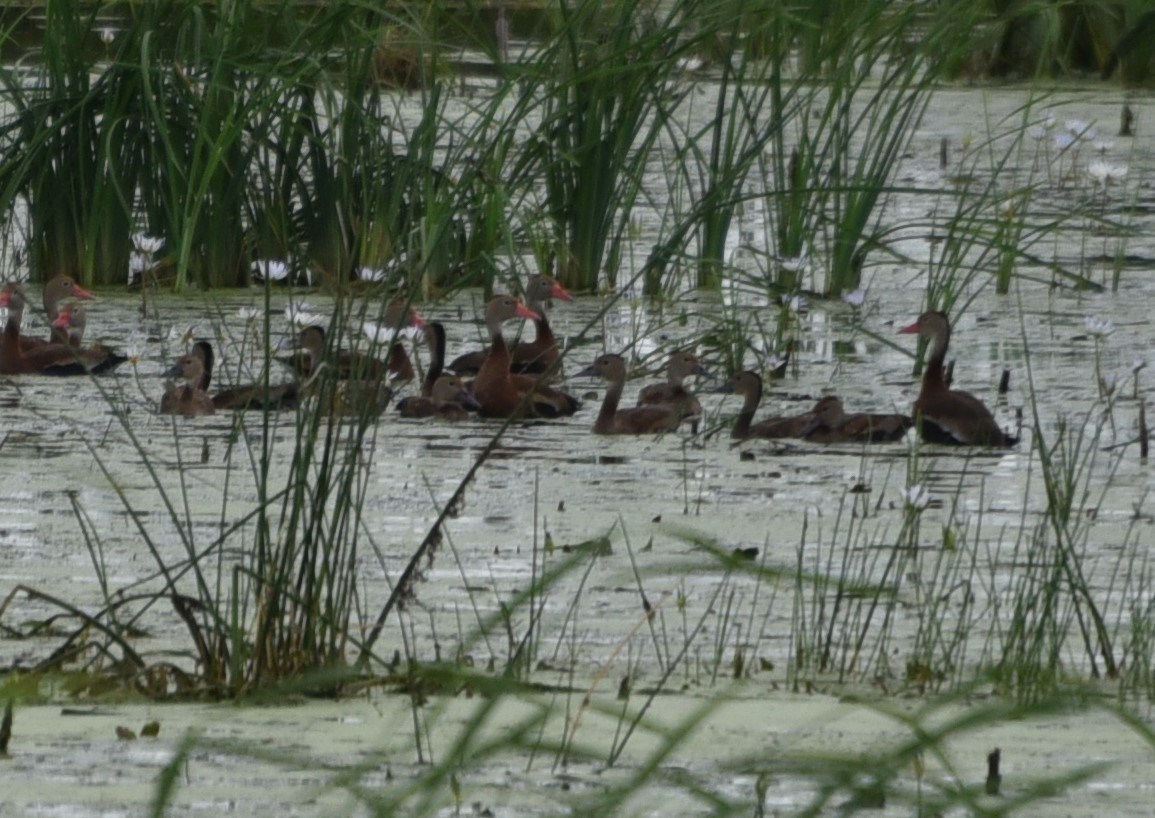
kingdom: Animalia
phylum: Chordata
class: Aves
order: Anseriformes
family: Anatidae
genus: Dendrocygna
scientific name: Dendrocygna autumnalis
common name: Black-bellied whistling duck
